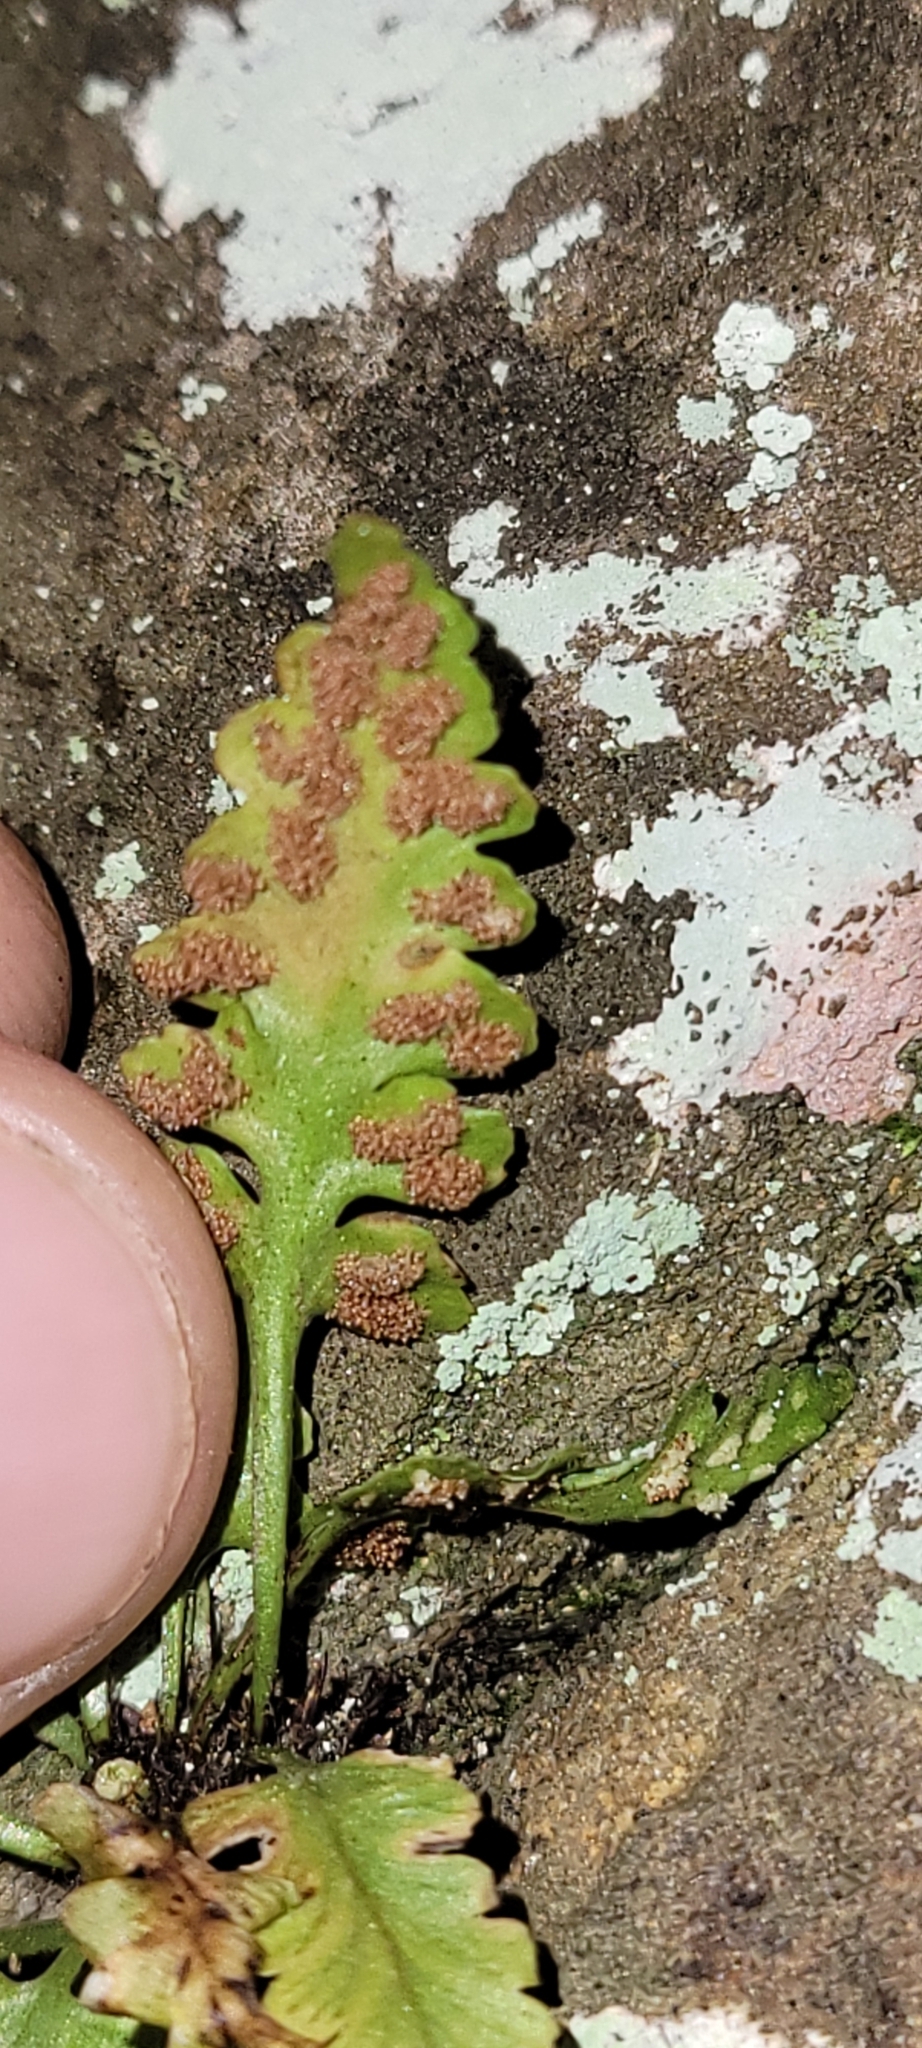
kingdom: Plantae
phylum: Tracheophyta
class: Polypodiopsida
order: Polypodiales
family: Aspleniaceae
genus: Asplenium
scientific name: Asplenium pinnatifidum
